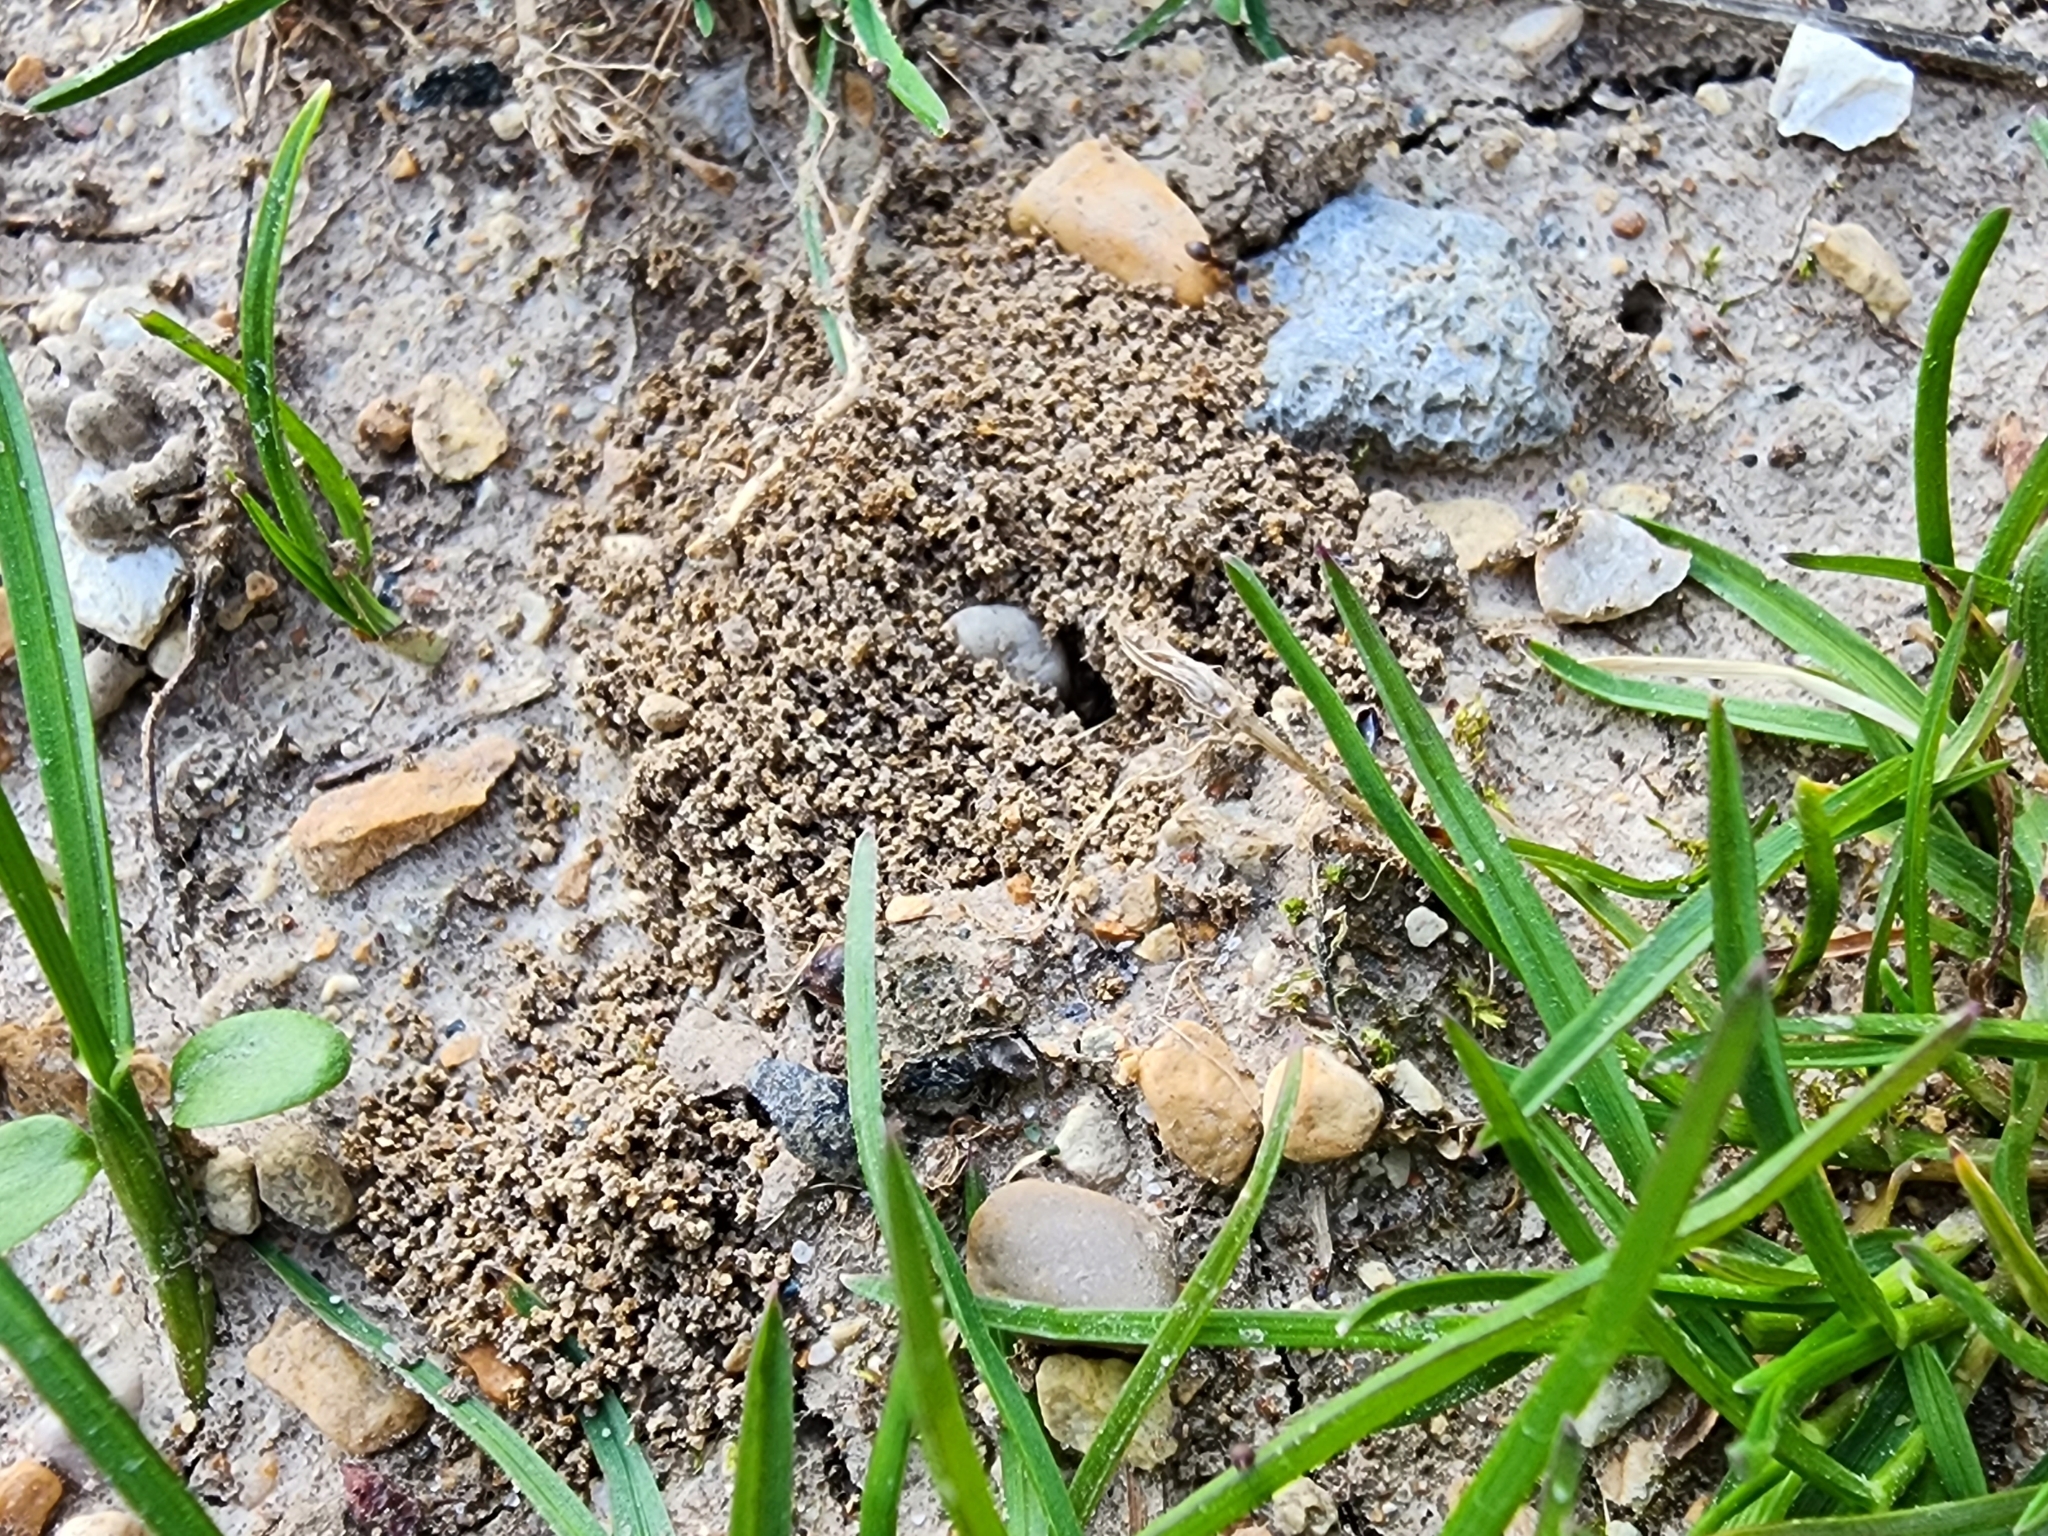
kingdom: Animalia
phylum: Arthropoda
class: Insecta
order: Hymenoptera
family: Formicidae
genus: Lasius
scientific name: Lasius neoniger
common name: Turfgrass ant
